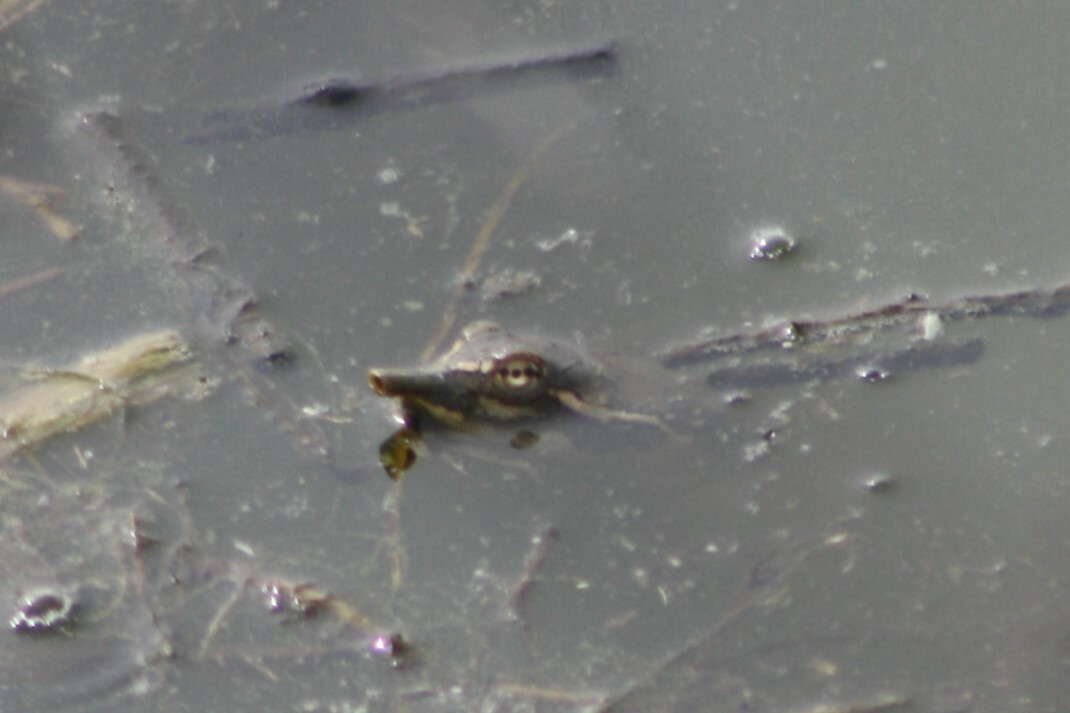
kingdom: Animalia
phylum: Chordata
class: Testudines
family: Trionychidae
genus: Apalone
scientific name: Apalone spinifera
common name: Spiny softshell turtle
